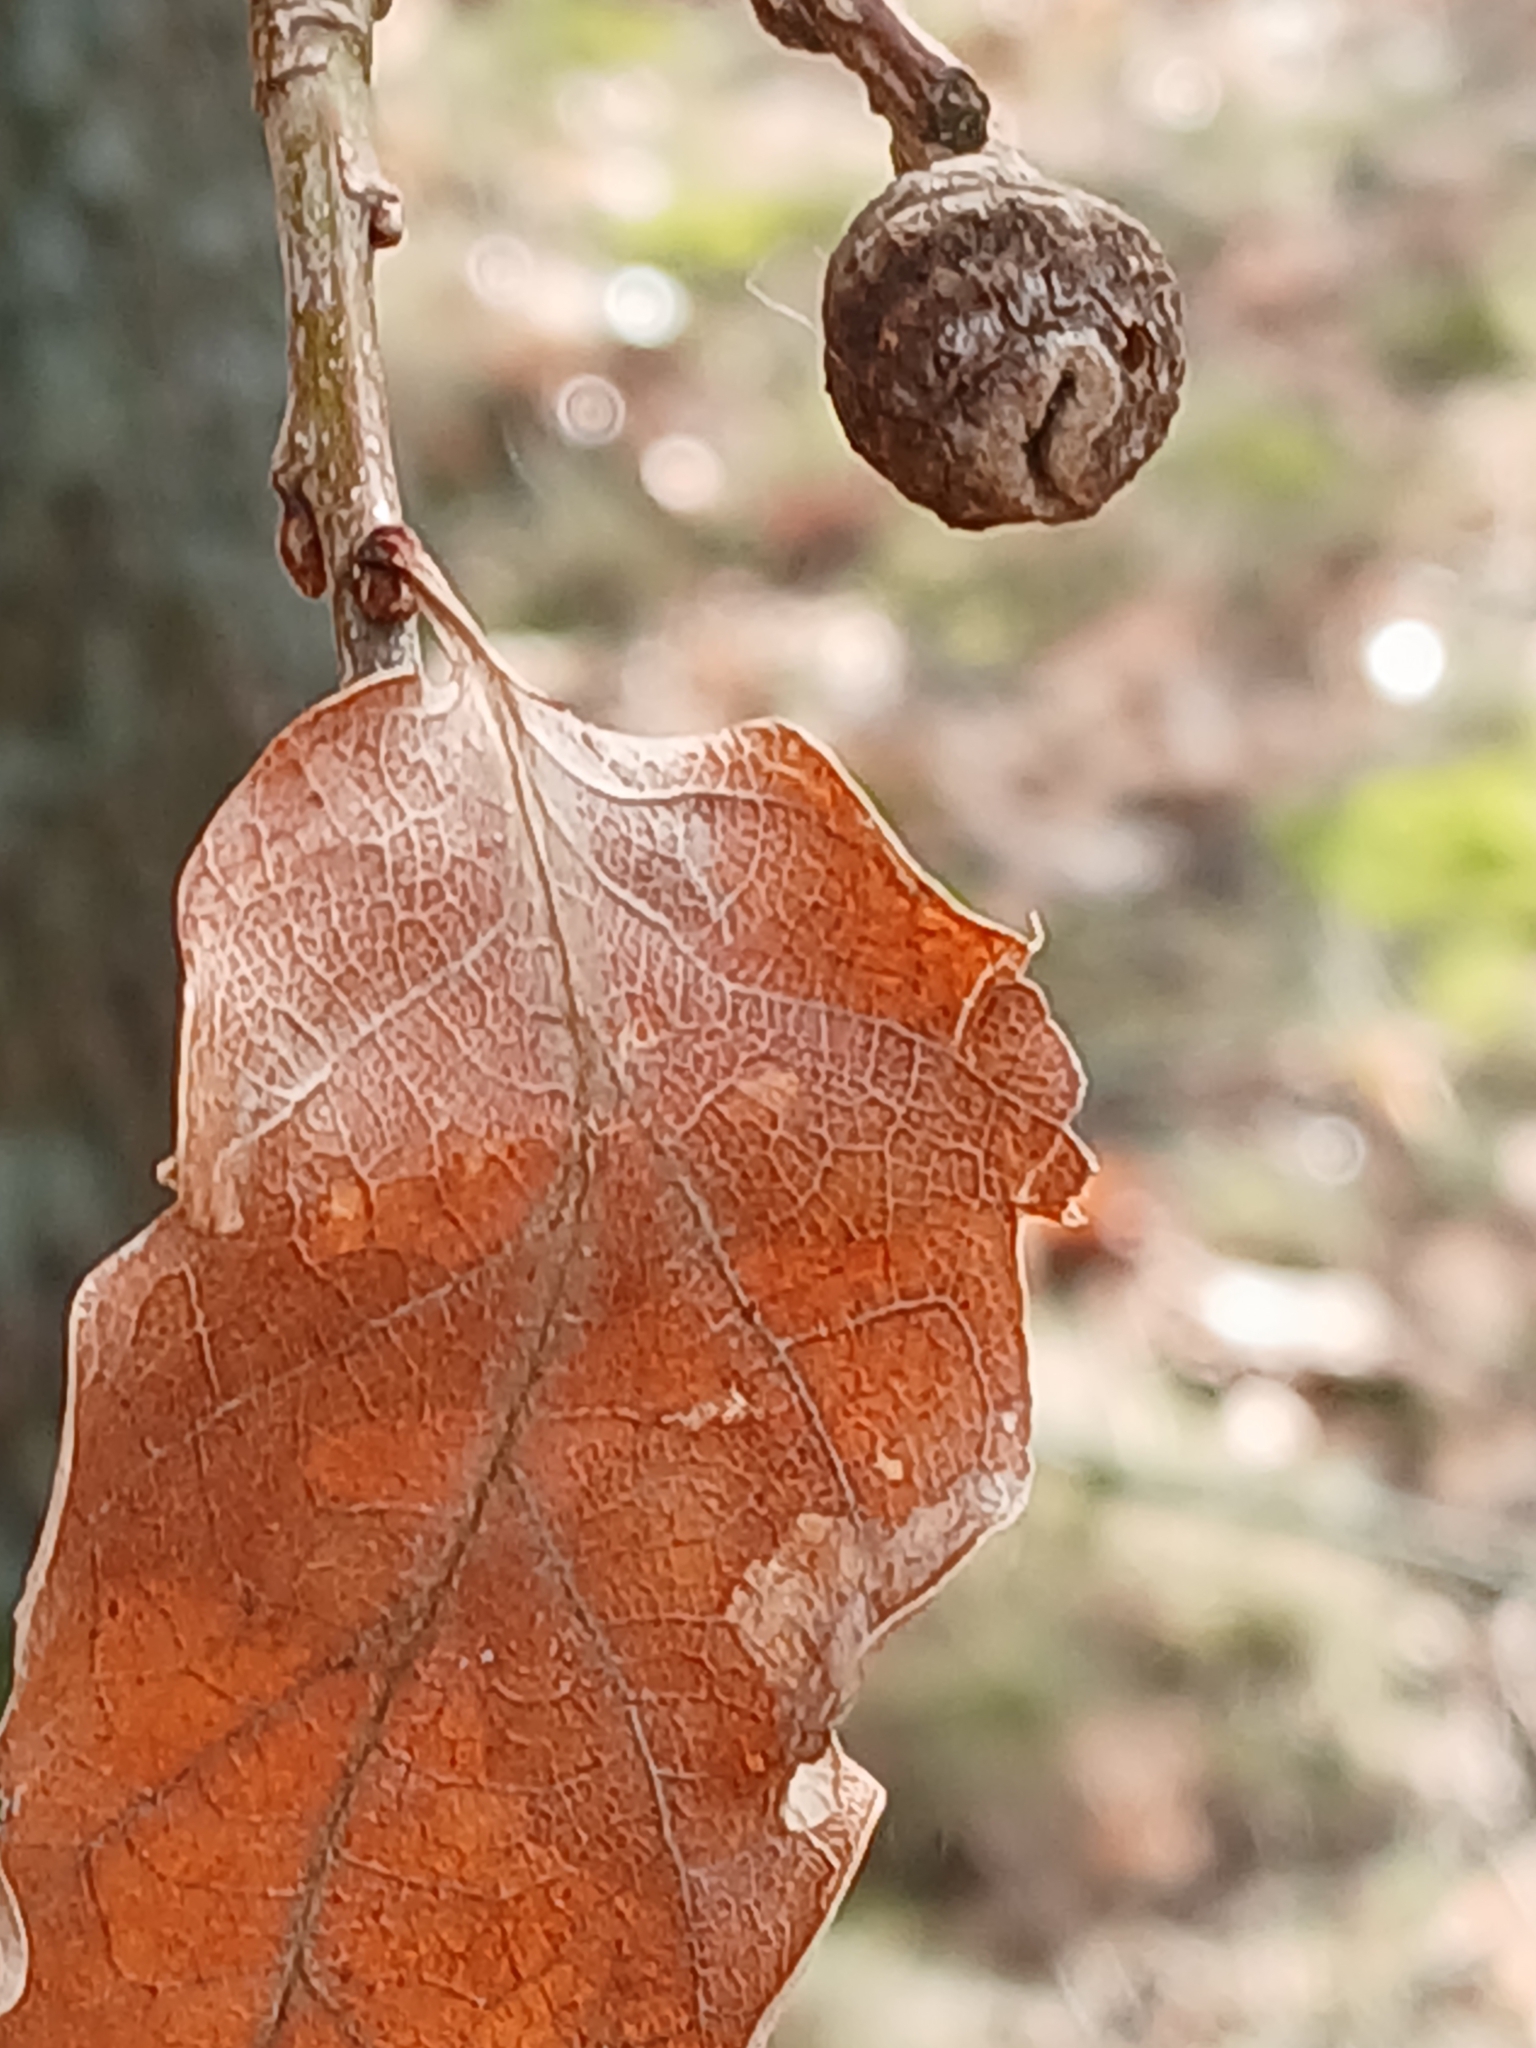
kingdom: Animalia
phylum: Arthropoda
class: Insecta
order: Hymenoptera
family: Cynipidae
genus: Andricus
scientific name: Andricus glutinosus
